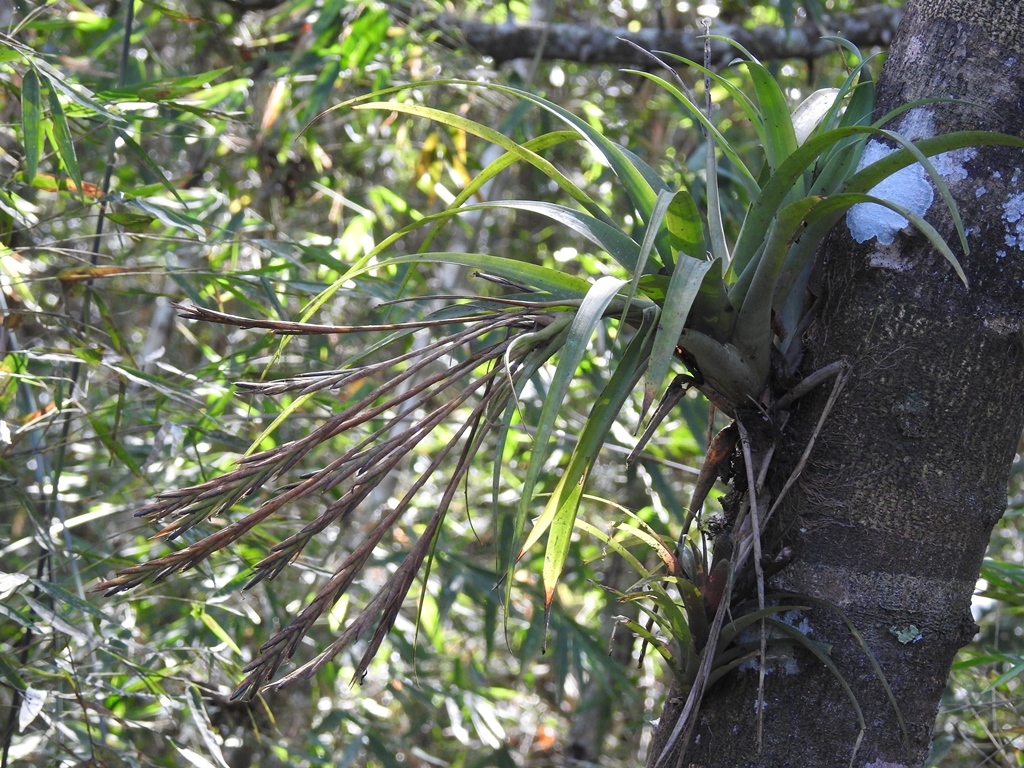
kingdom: Plantae
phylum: Tracheophyta
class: Liliopsida
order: Poales
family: Bromeliaceae
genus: Tillandsia
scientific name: Tillandsia flabellata
